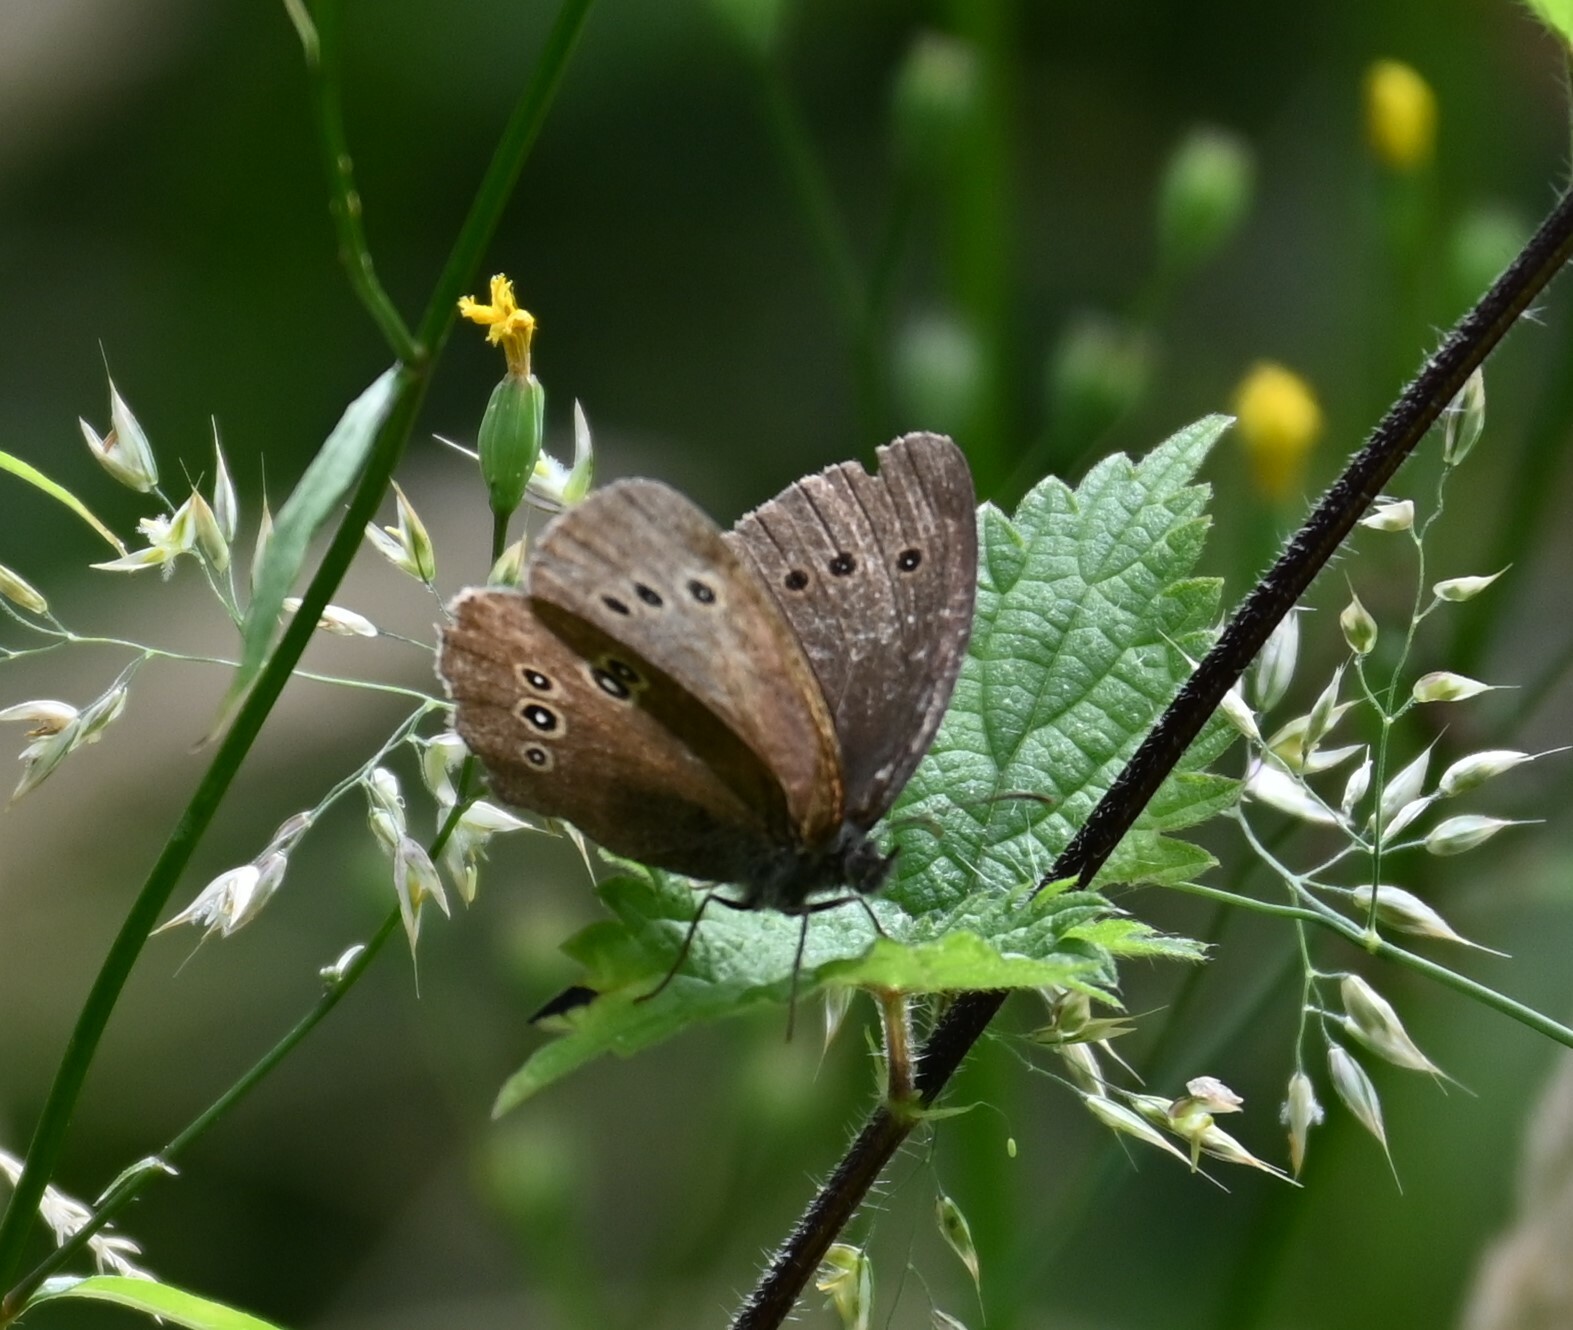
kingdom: Animalia
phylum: Arthropoda
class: Insecta
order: Lepidoptera
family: Nymphalidae
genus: Aphantopus
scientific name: Aphantopus hyperantus
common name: Ringlet
